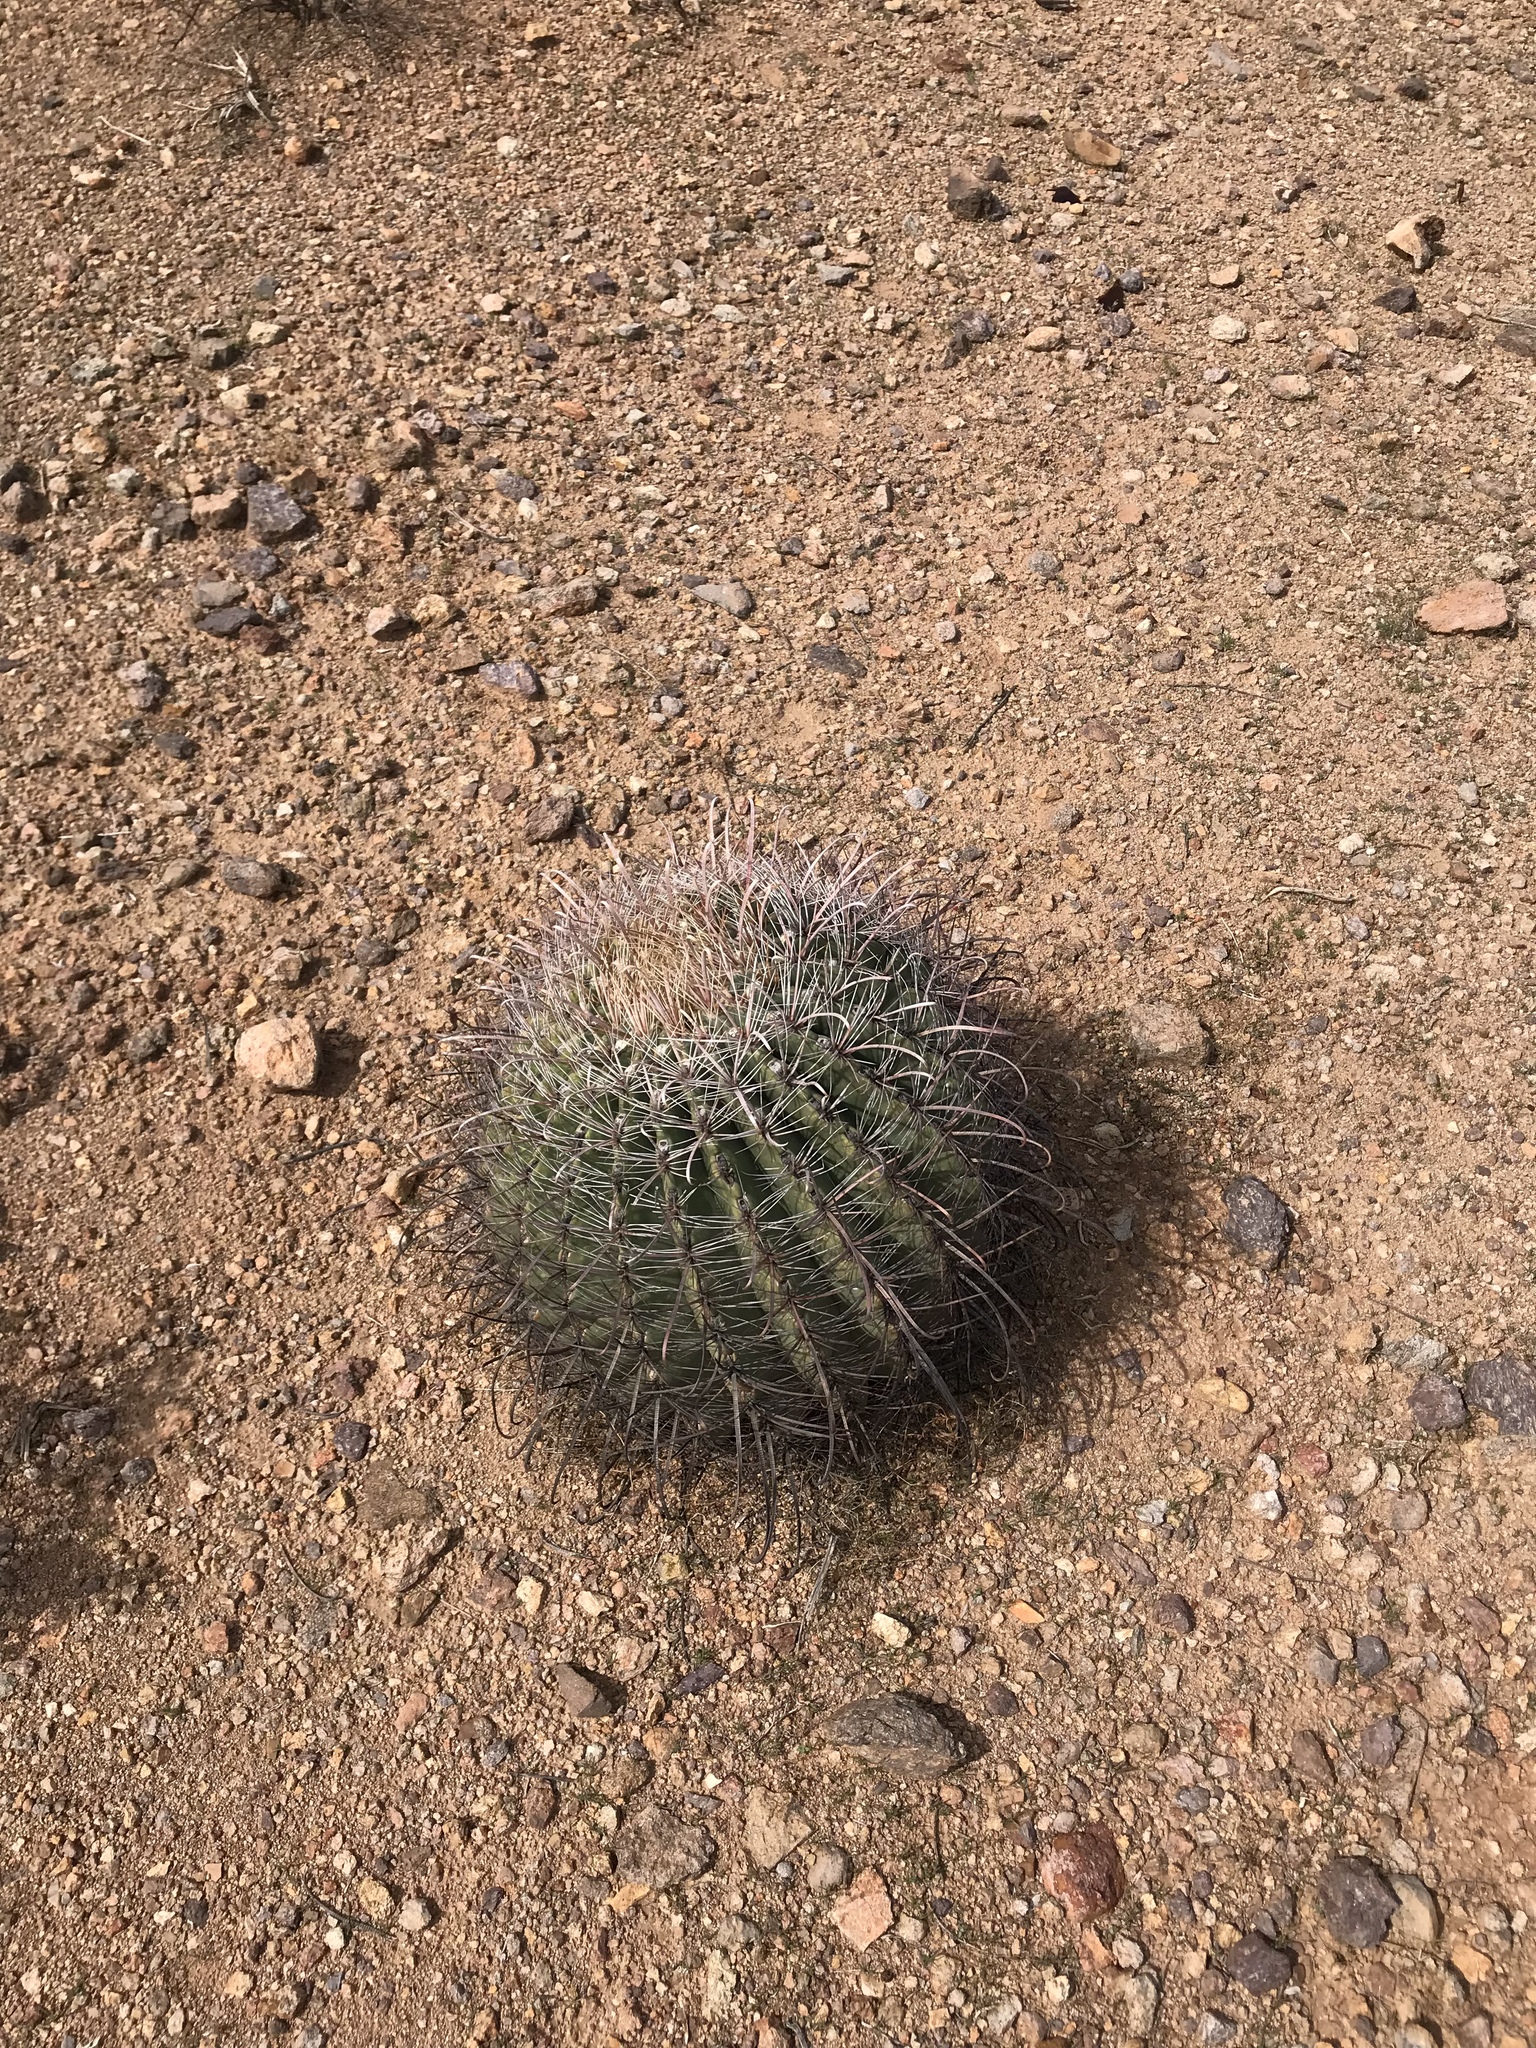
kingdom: Plantae
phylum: Tracheophyta
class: Magnoliopsida
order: Caryophyllales
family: Cactaceae
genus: Ferocactus
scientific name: Ferocactus wislizeni
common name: Candy barrel cactus
